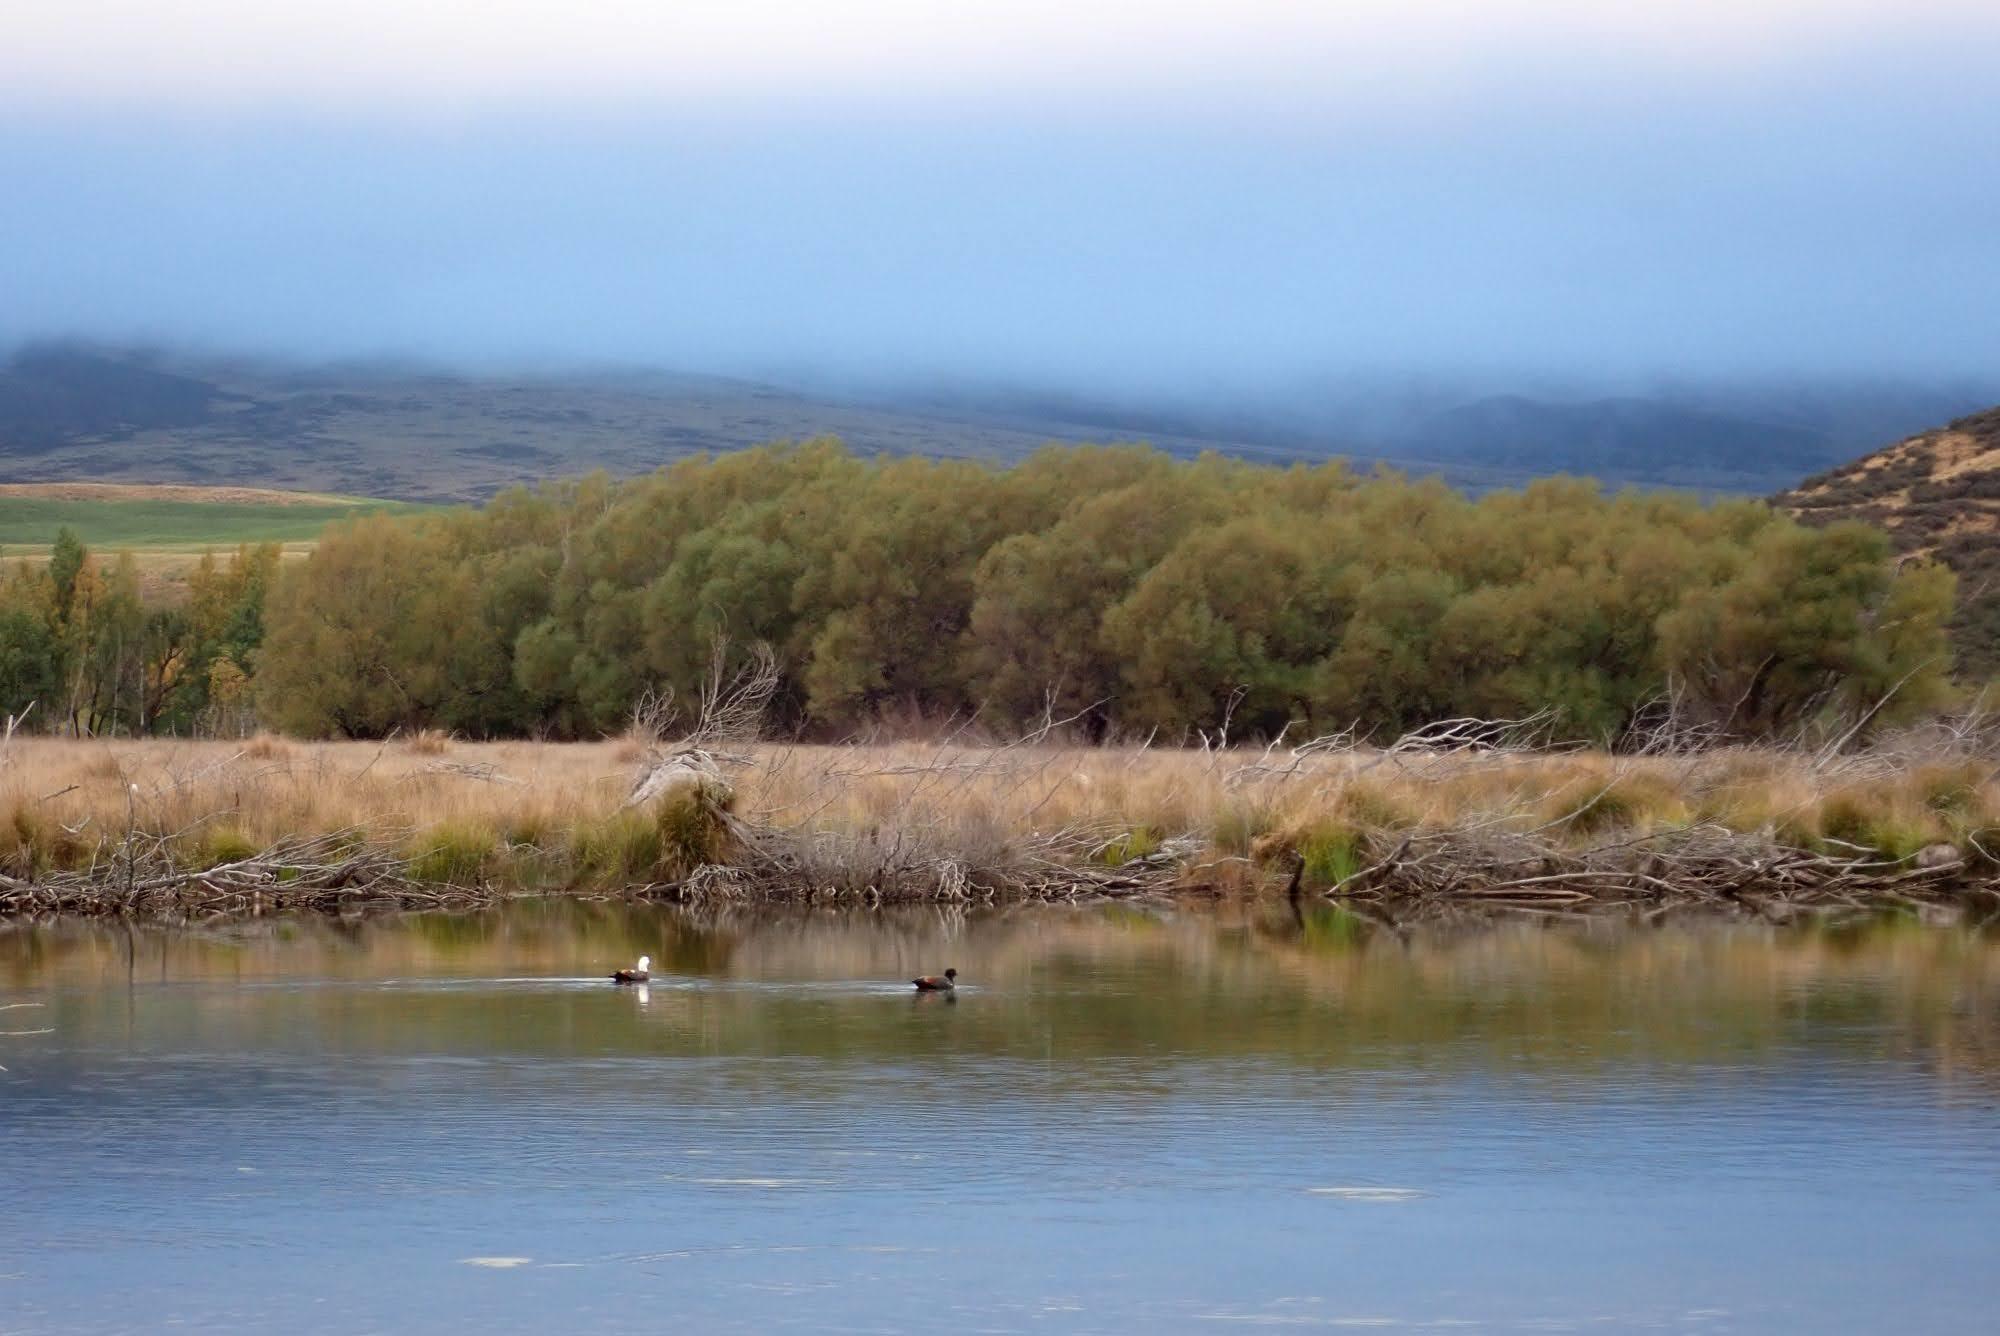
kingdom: Animalia
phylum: Chordata
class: Aves
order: Anseriformes
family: Anatidae
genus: Tadorna
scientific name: Tadorna variegata
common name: Paradise shelduck
